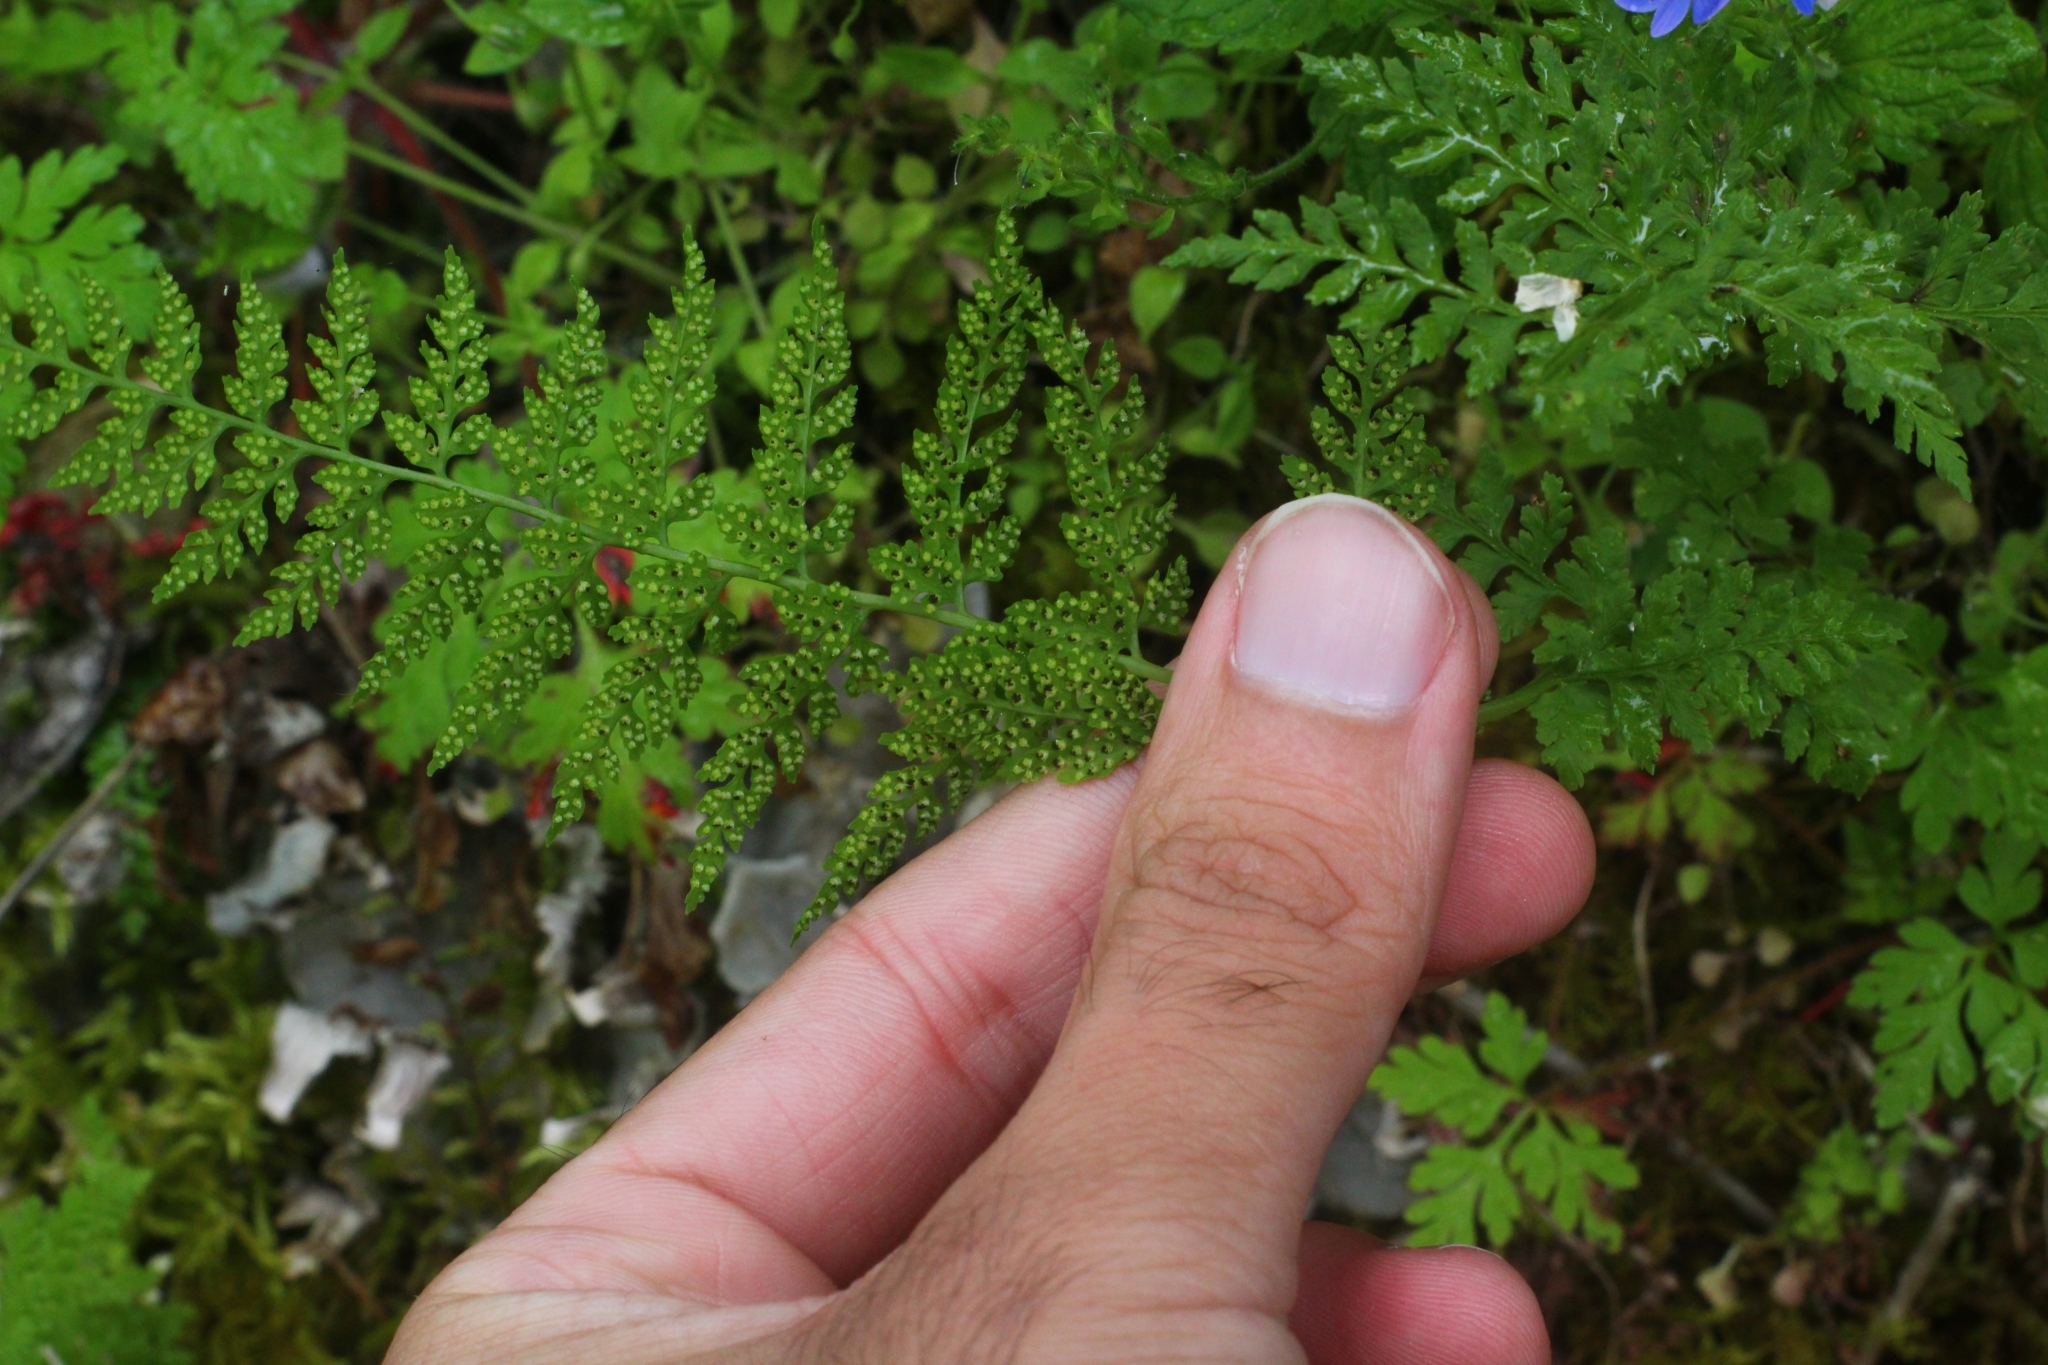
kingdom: Plantae
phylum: Tracheophyta
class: Polypodiopsida
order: Polypodiales
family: Cystopteridaceae
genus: Cystopteris
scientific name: Cystopteris fragilis
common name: Brittle bladder fern
